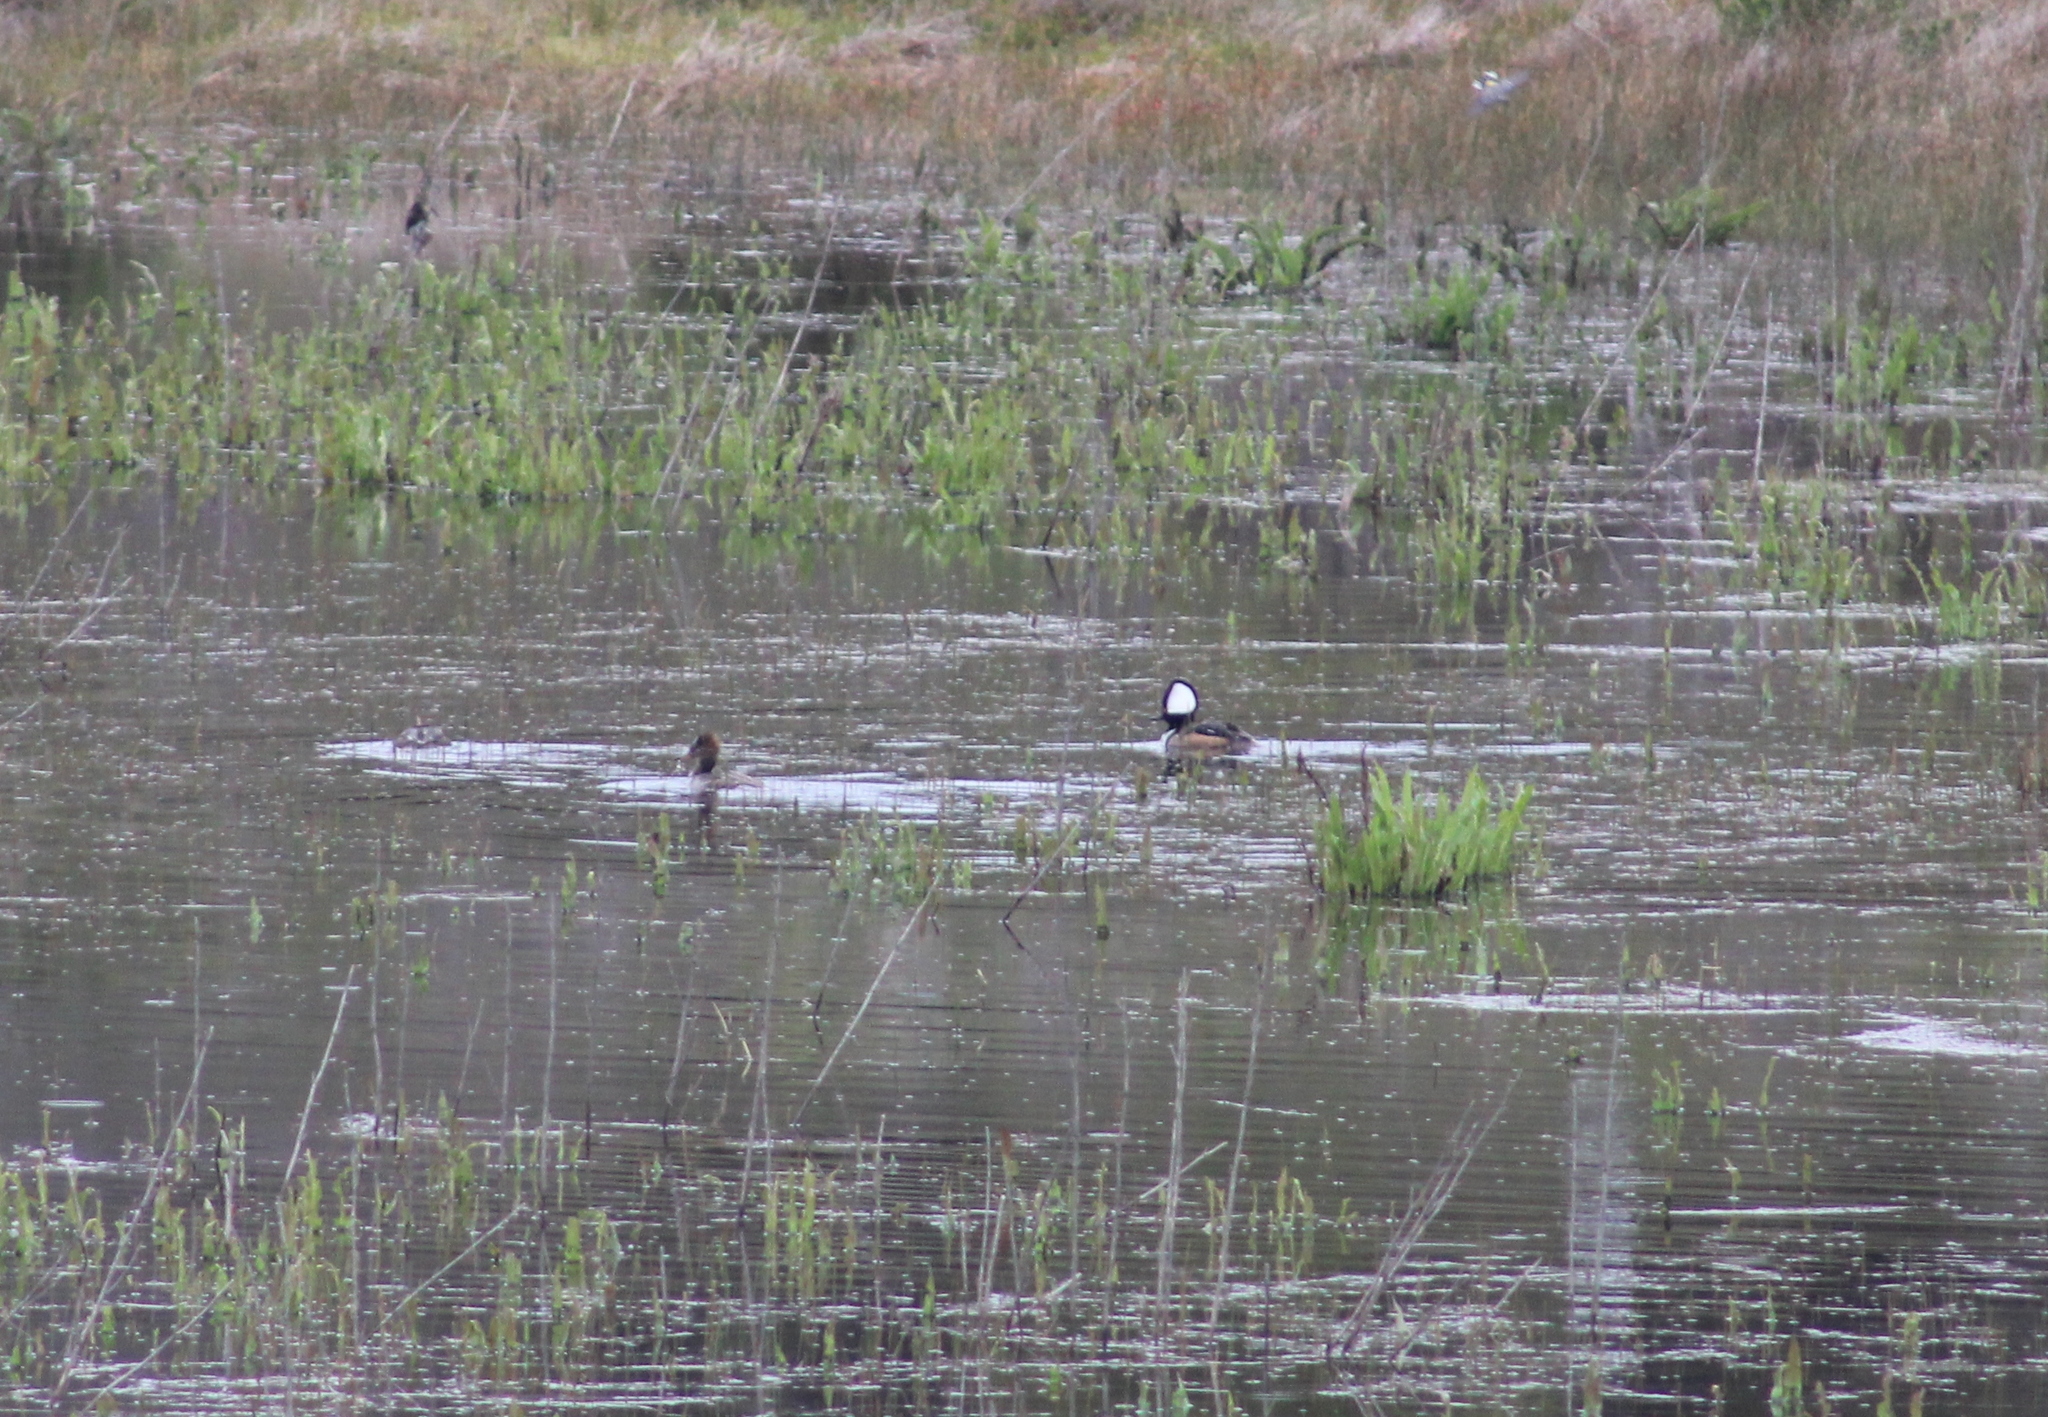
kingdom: Animalia
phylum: Chordata
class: Aves
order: Anseriformes
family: Anatidae
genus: Lophodytes
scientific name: Lophodytes cucullatus
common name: Hooded merganser
